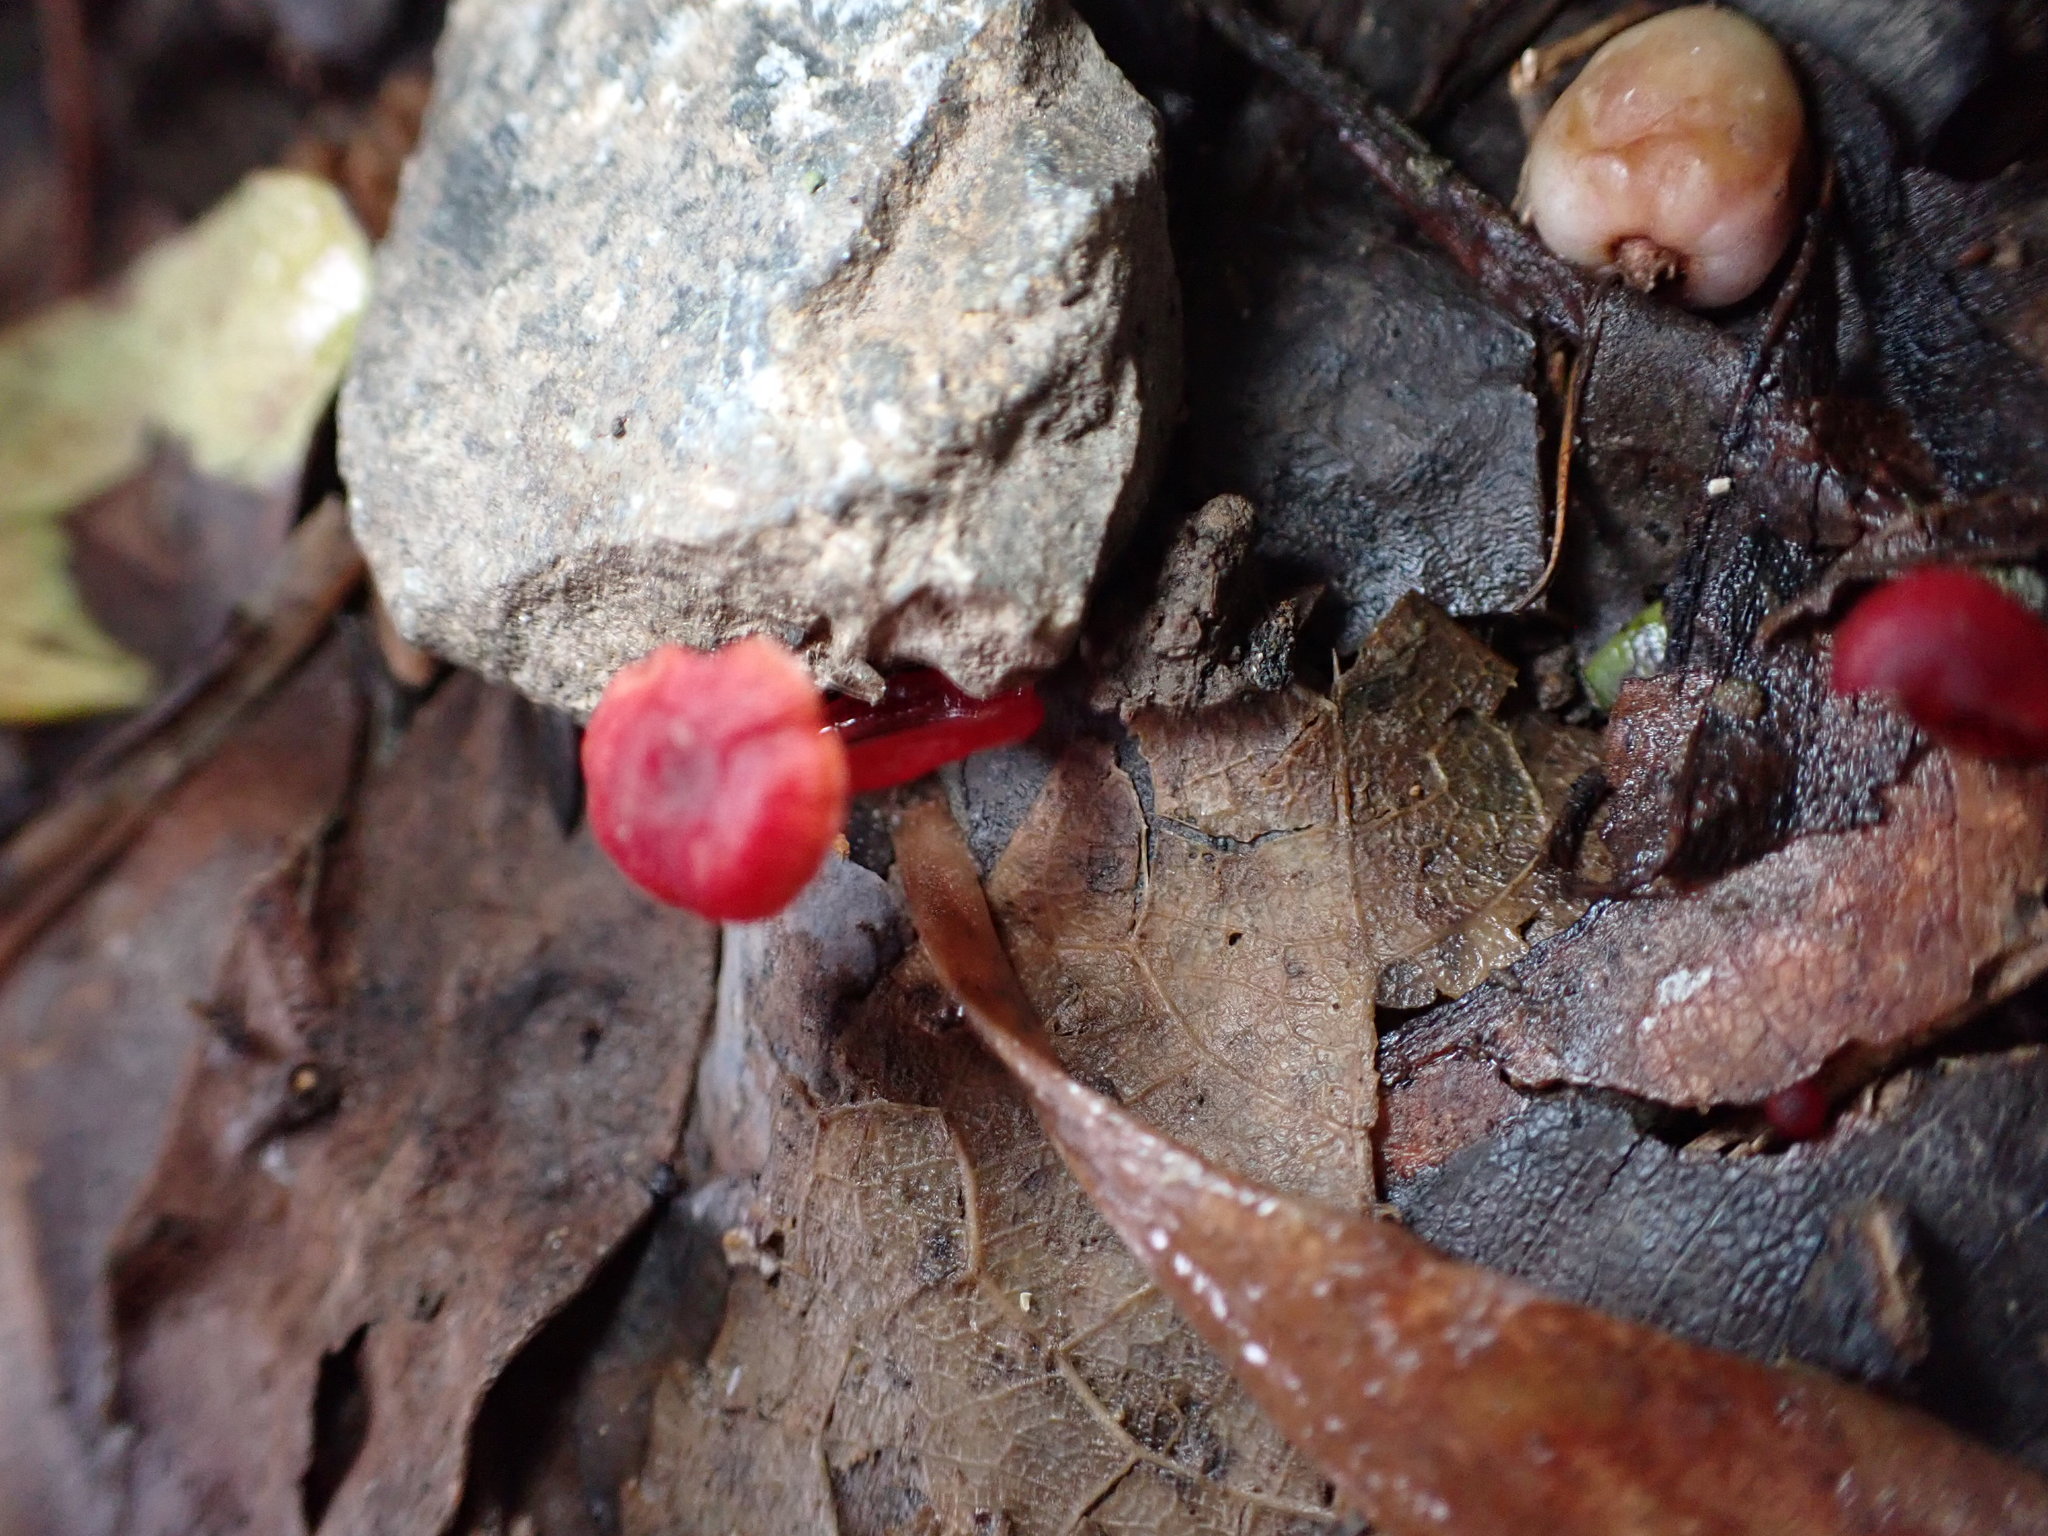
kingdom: Fungi
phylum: Basidiomycota
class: Agaricomycetes
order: Agaricales
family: Mycenaceae
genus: Cruentomycena
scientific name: Cruentomycena viscidocruenta
